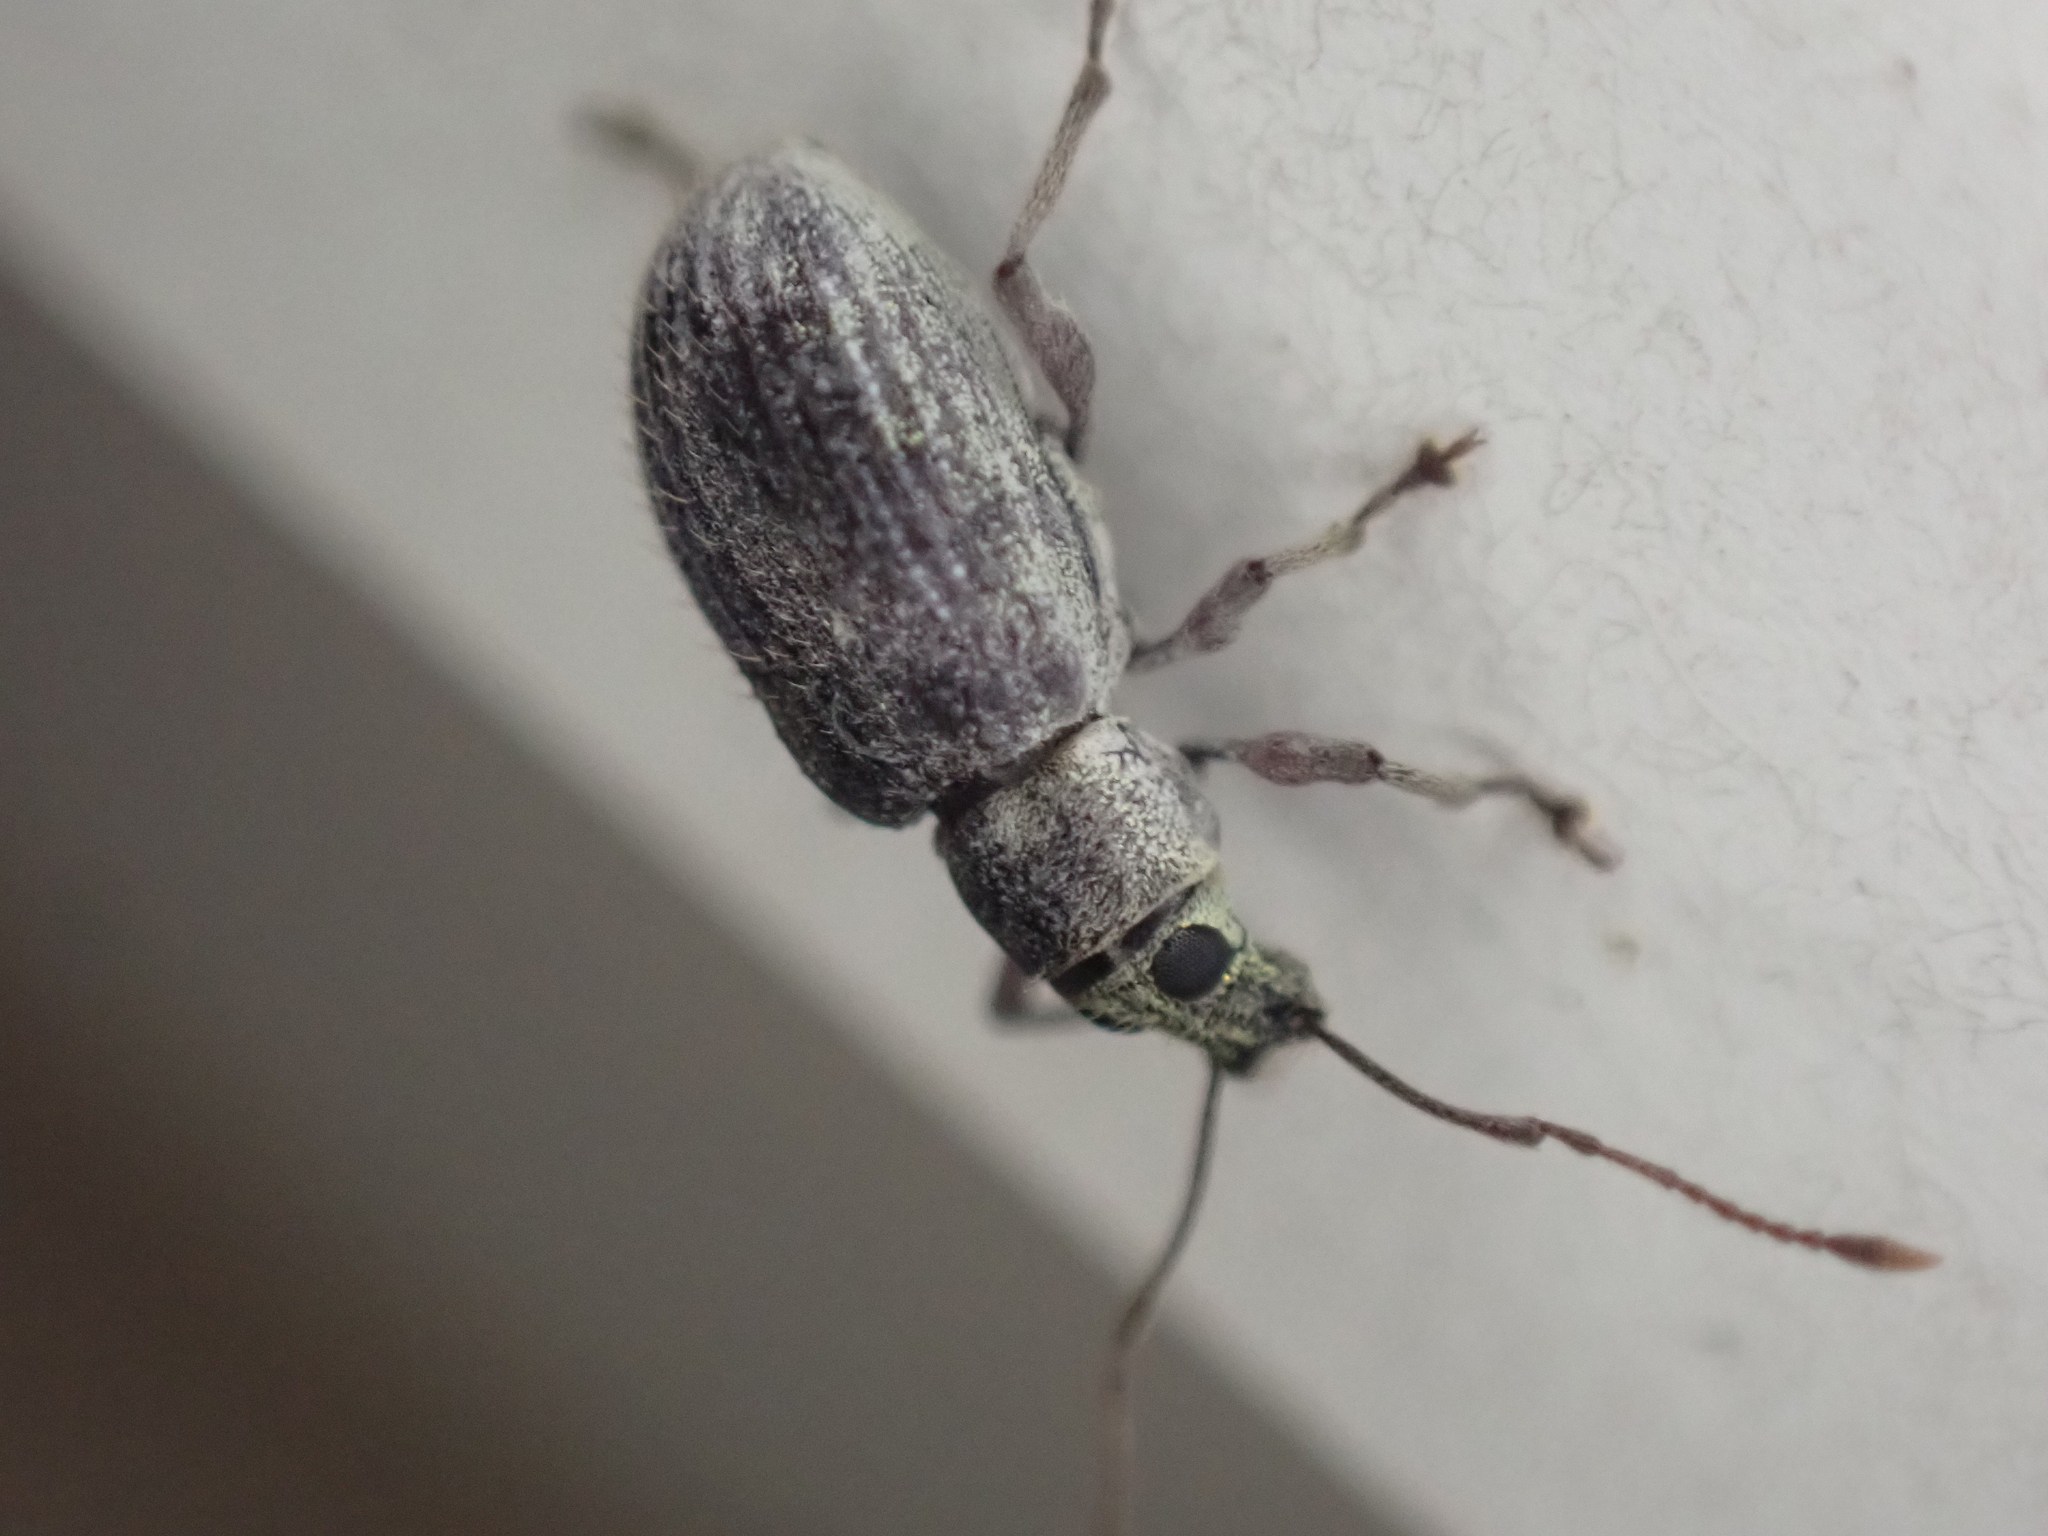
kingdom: Animalia
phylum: Arthropoda
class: Insecta
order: Coleoptera
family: Curculionidae
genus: Cyrtepistomus
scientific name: Cyrtepistomus castaneus
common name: Weevil
